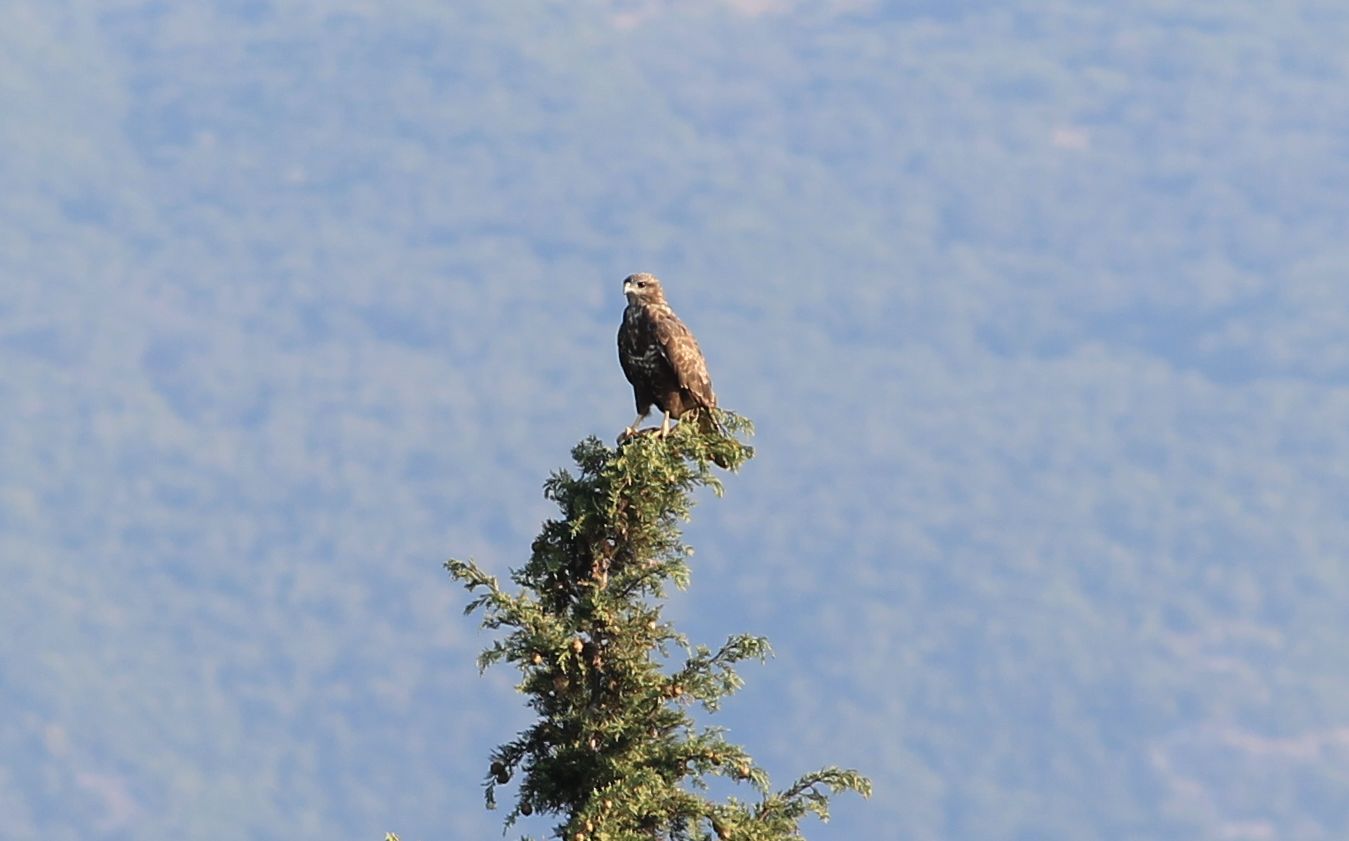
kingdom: Animalia
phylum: Chordata
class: Aves
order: Accipitriformes
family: Accipitridae
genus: Buteo
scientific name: Buteo buteo
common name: Common buzzard
